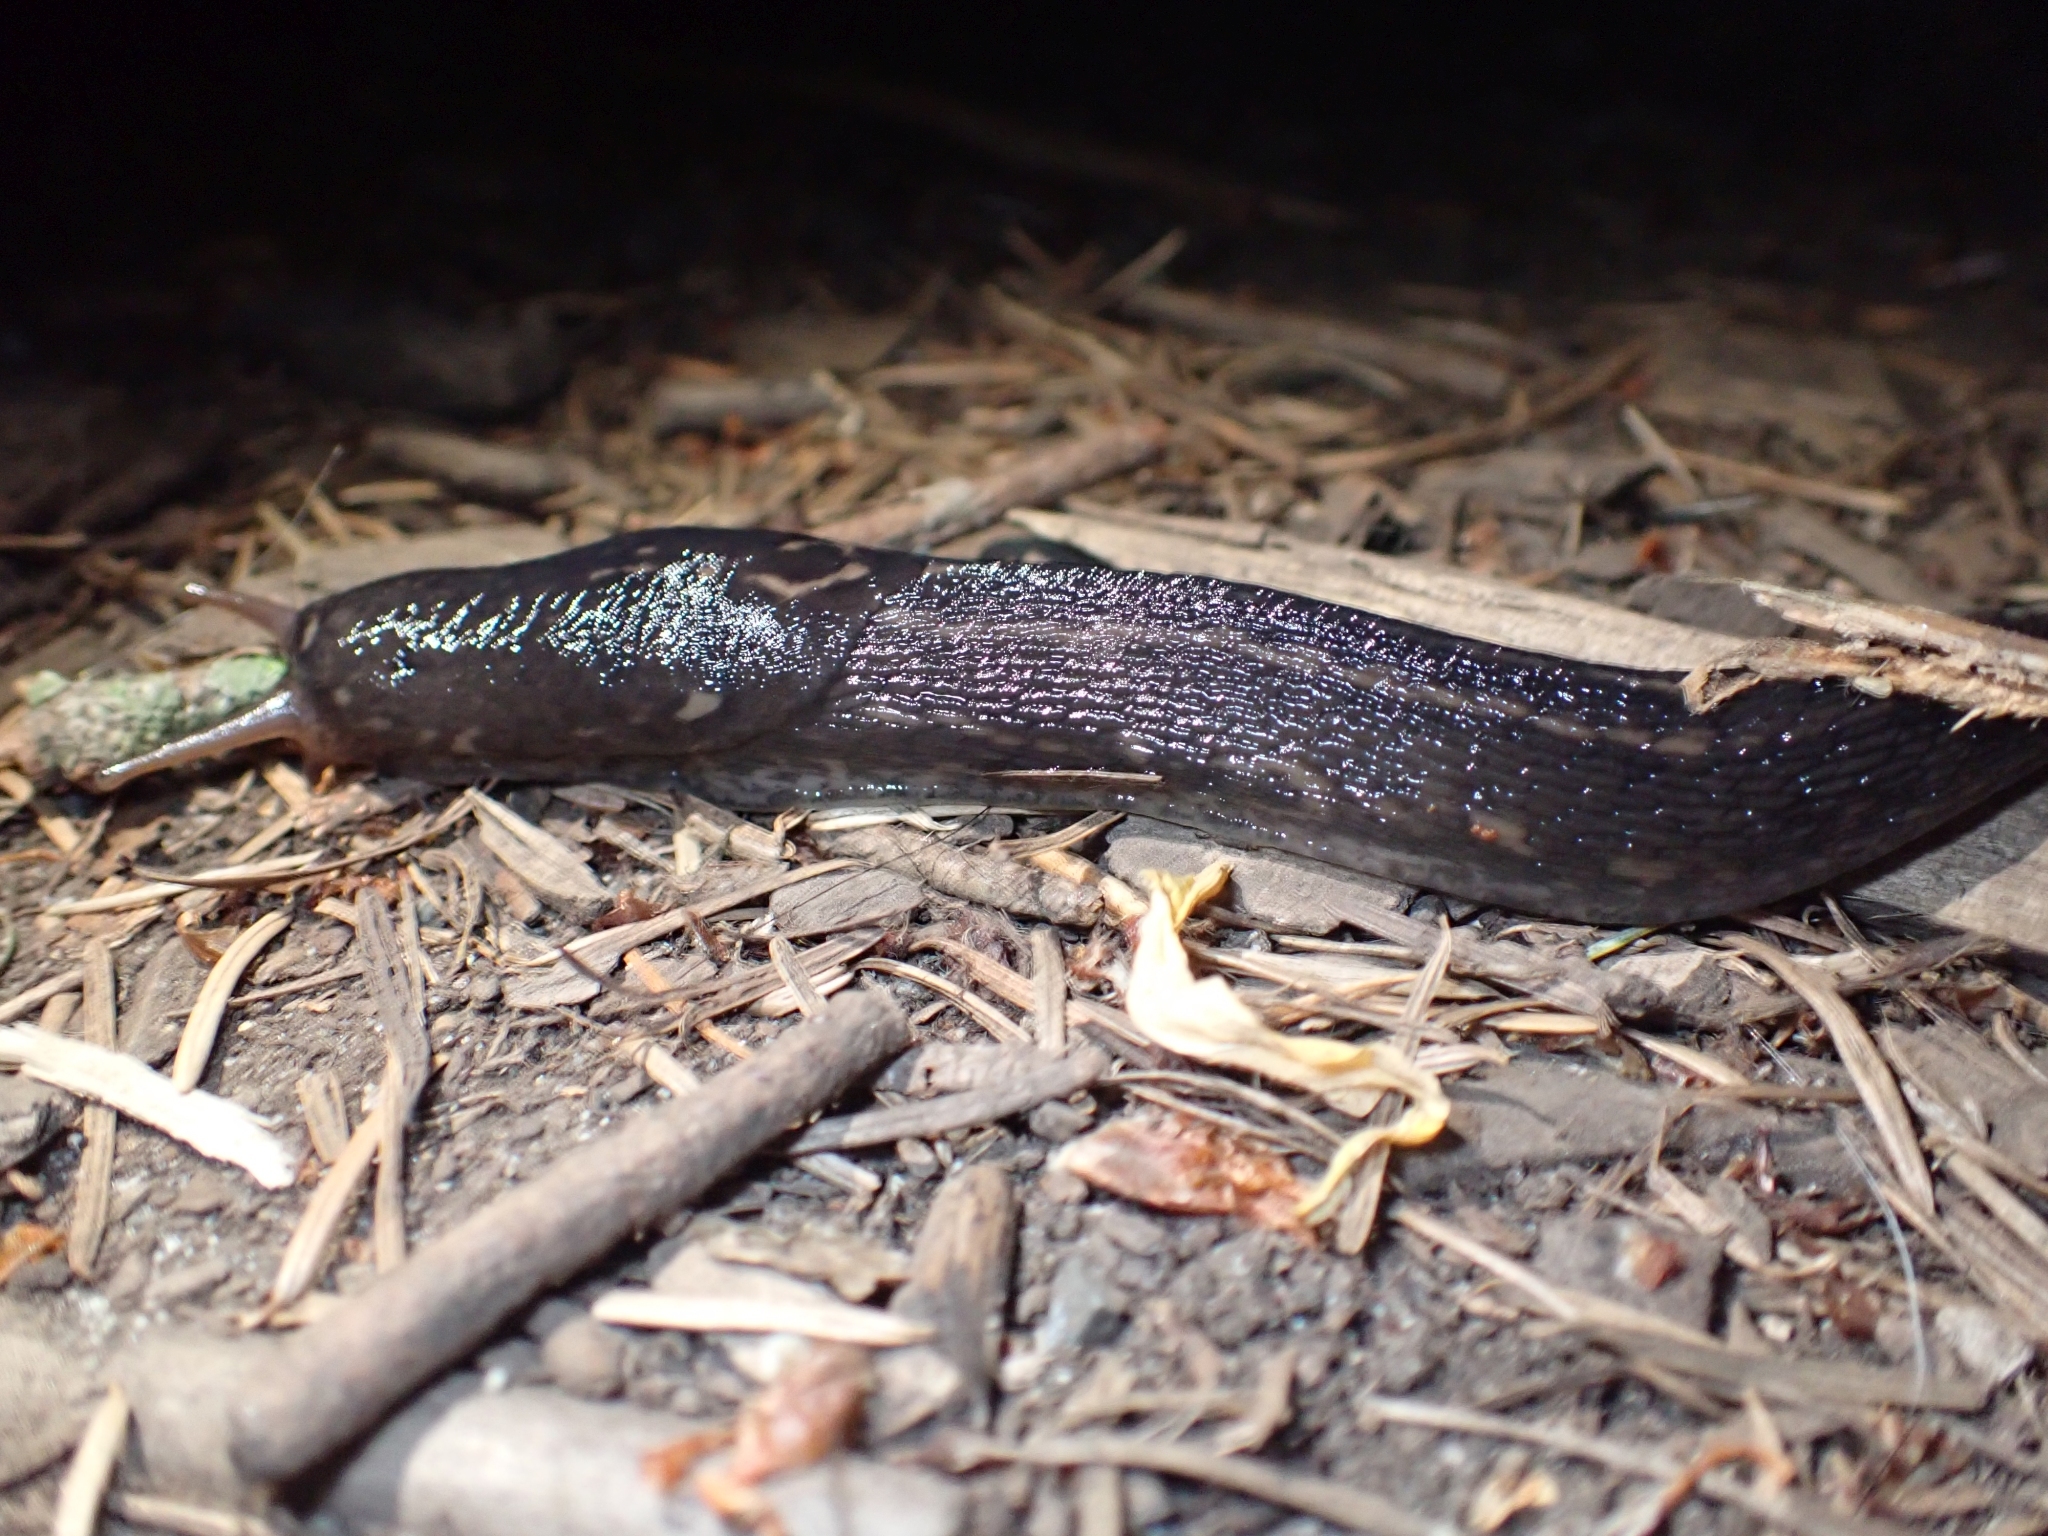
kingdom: Animalia
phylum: Mollusca
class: Gastropoda
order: Stylommatophora
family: Limacidae
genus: Limax
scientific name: Limax maximus
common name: Great grey slug
